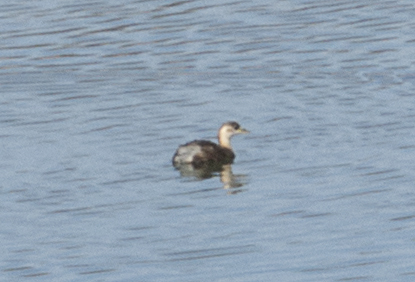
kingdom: Animalia
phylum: Chordata
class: Aves
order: Podicipediformes
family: Podicipedidae
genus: Tachybaptus
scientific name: Tachybaptus ruficollis
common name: Little grebe
